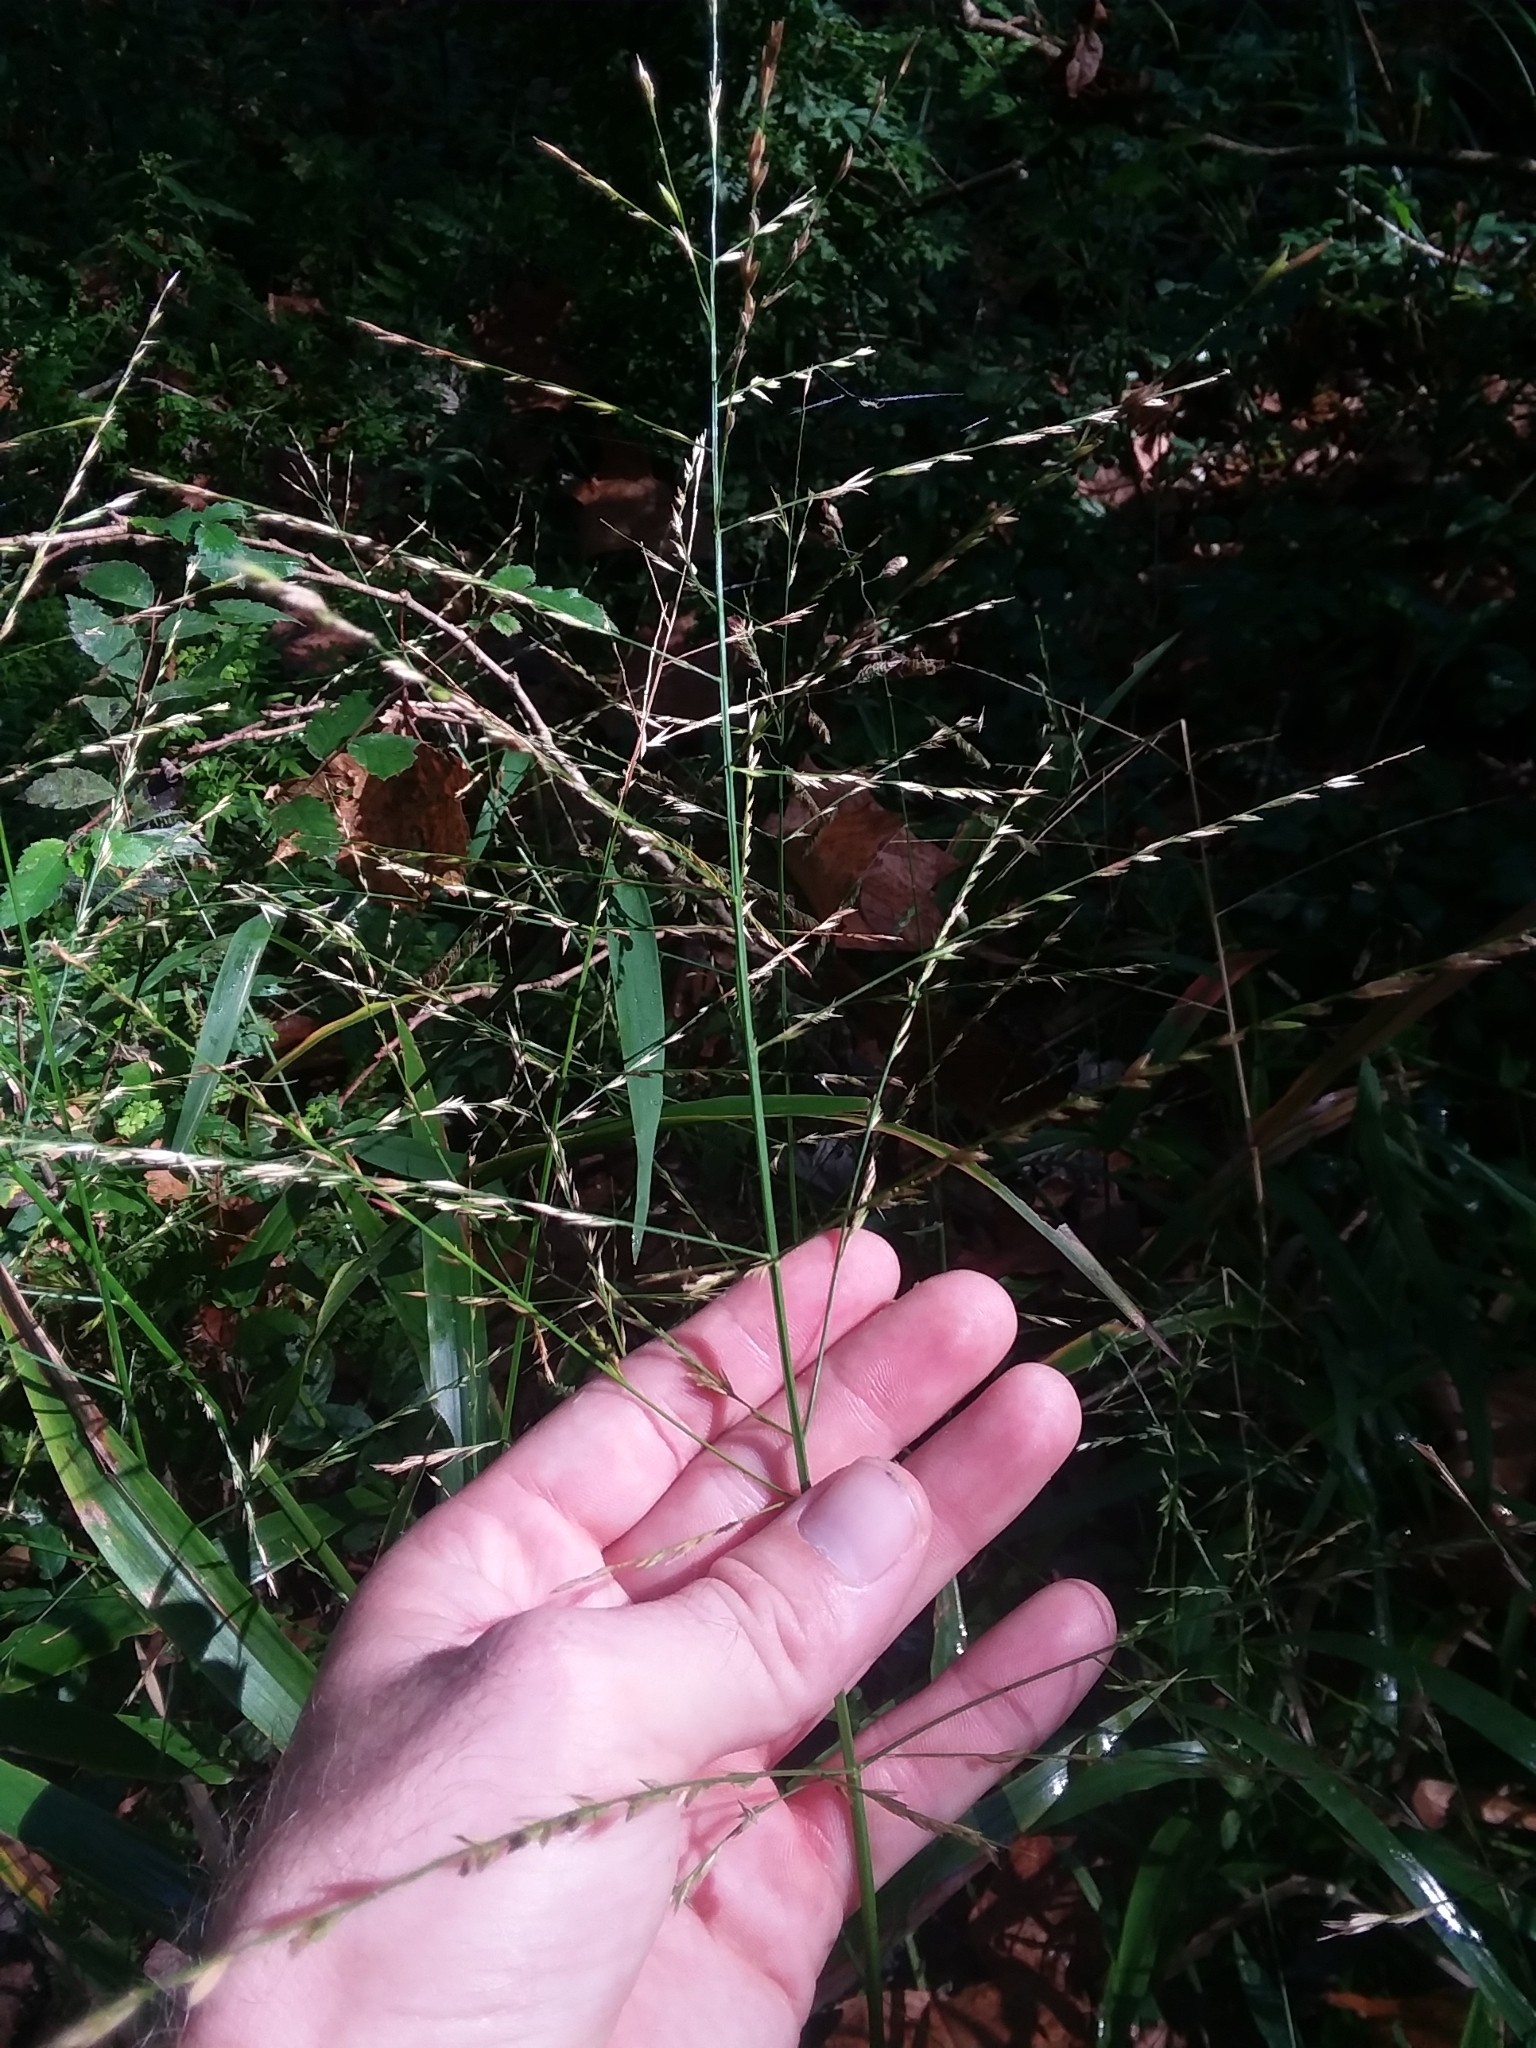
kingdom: Plantae
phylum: Tracheophyta
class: Liliopsida
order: Poales
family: Poaceae
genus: Panicum
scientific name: Panicum gymnocarpon
